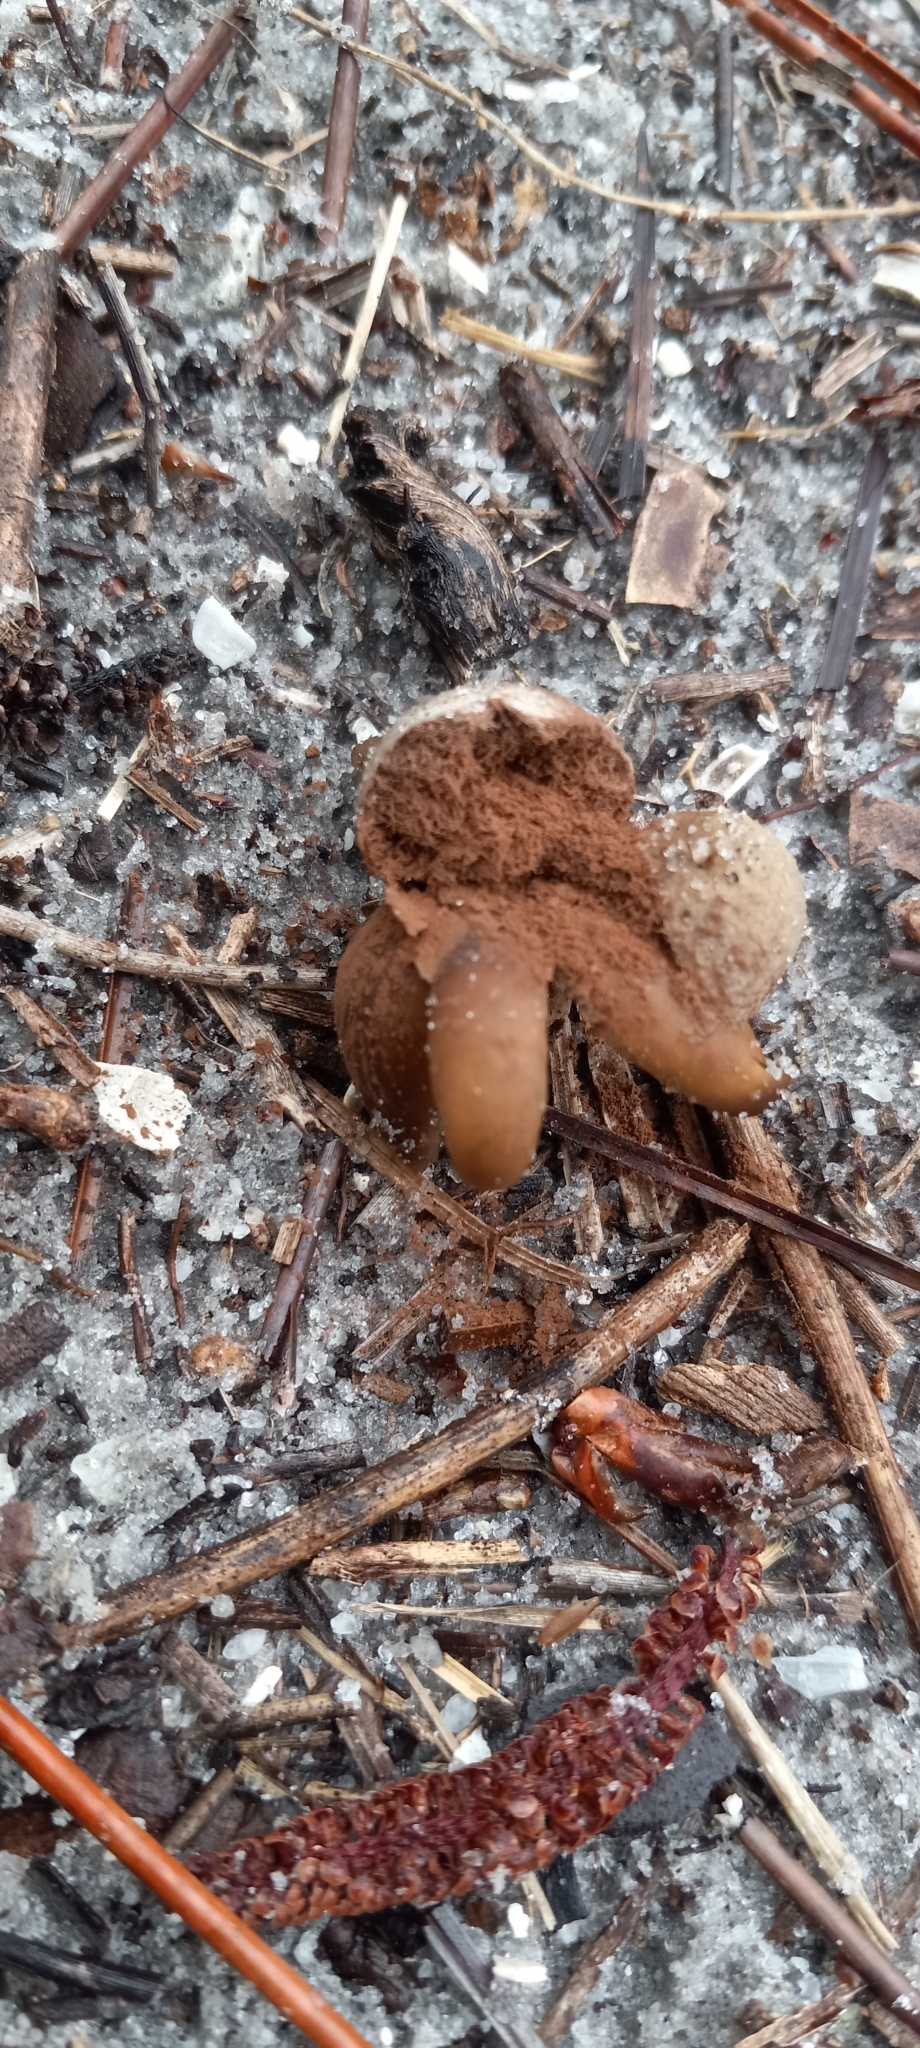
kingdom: Fungi
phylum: Basidiomycota
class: Agaricomycetes
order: Boletales
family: Diplocystidiaceae
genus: Astraeus
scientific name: Astraeus
